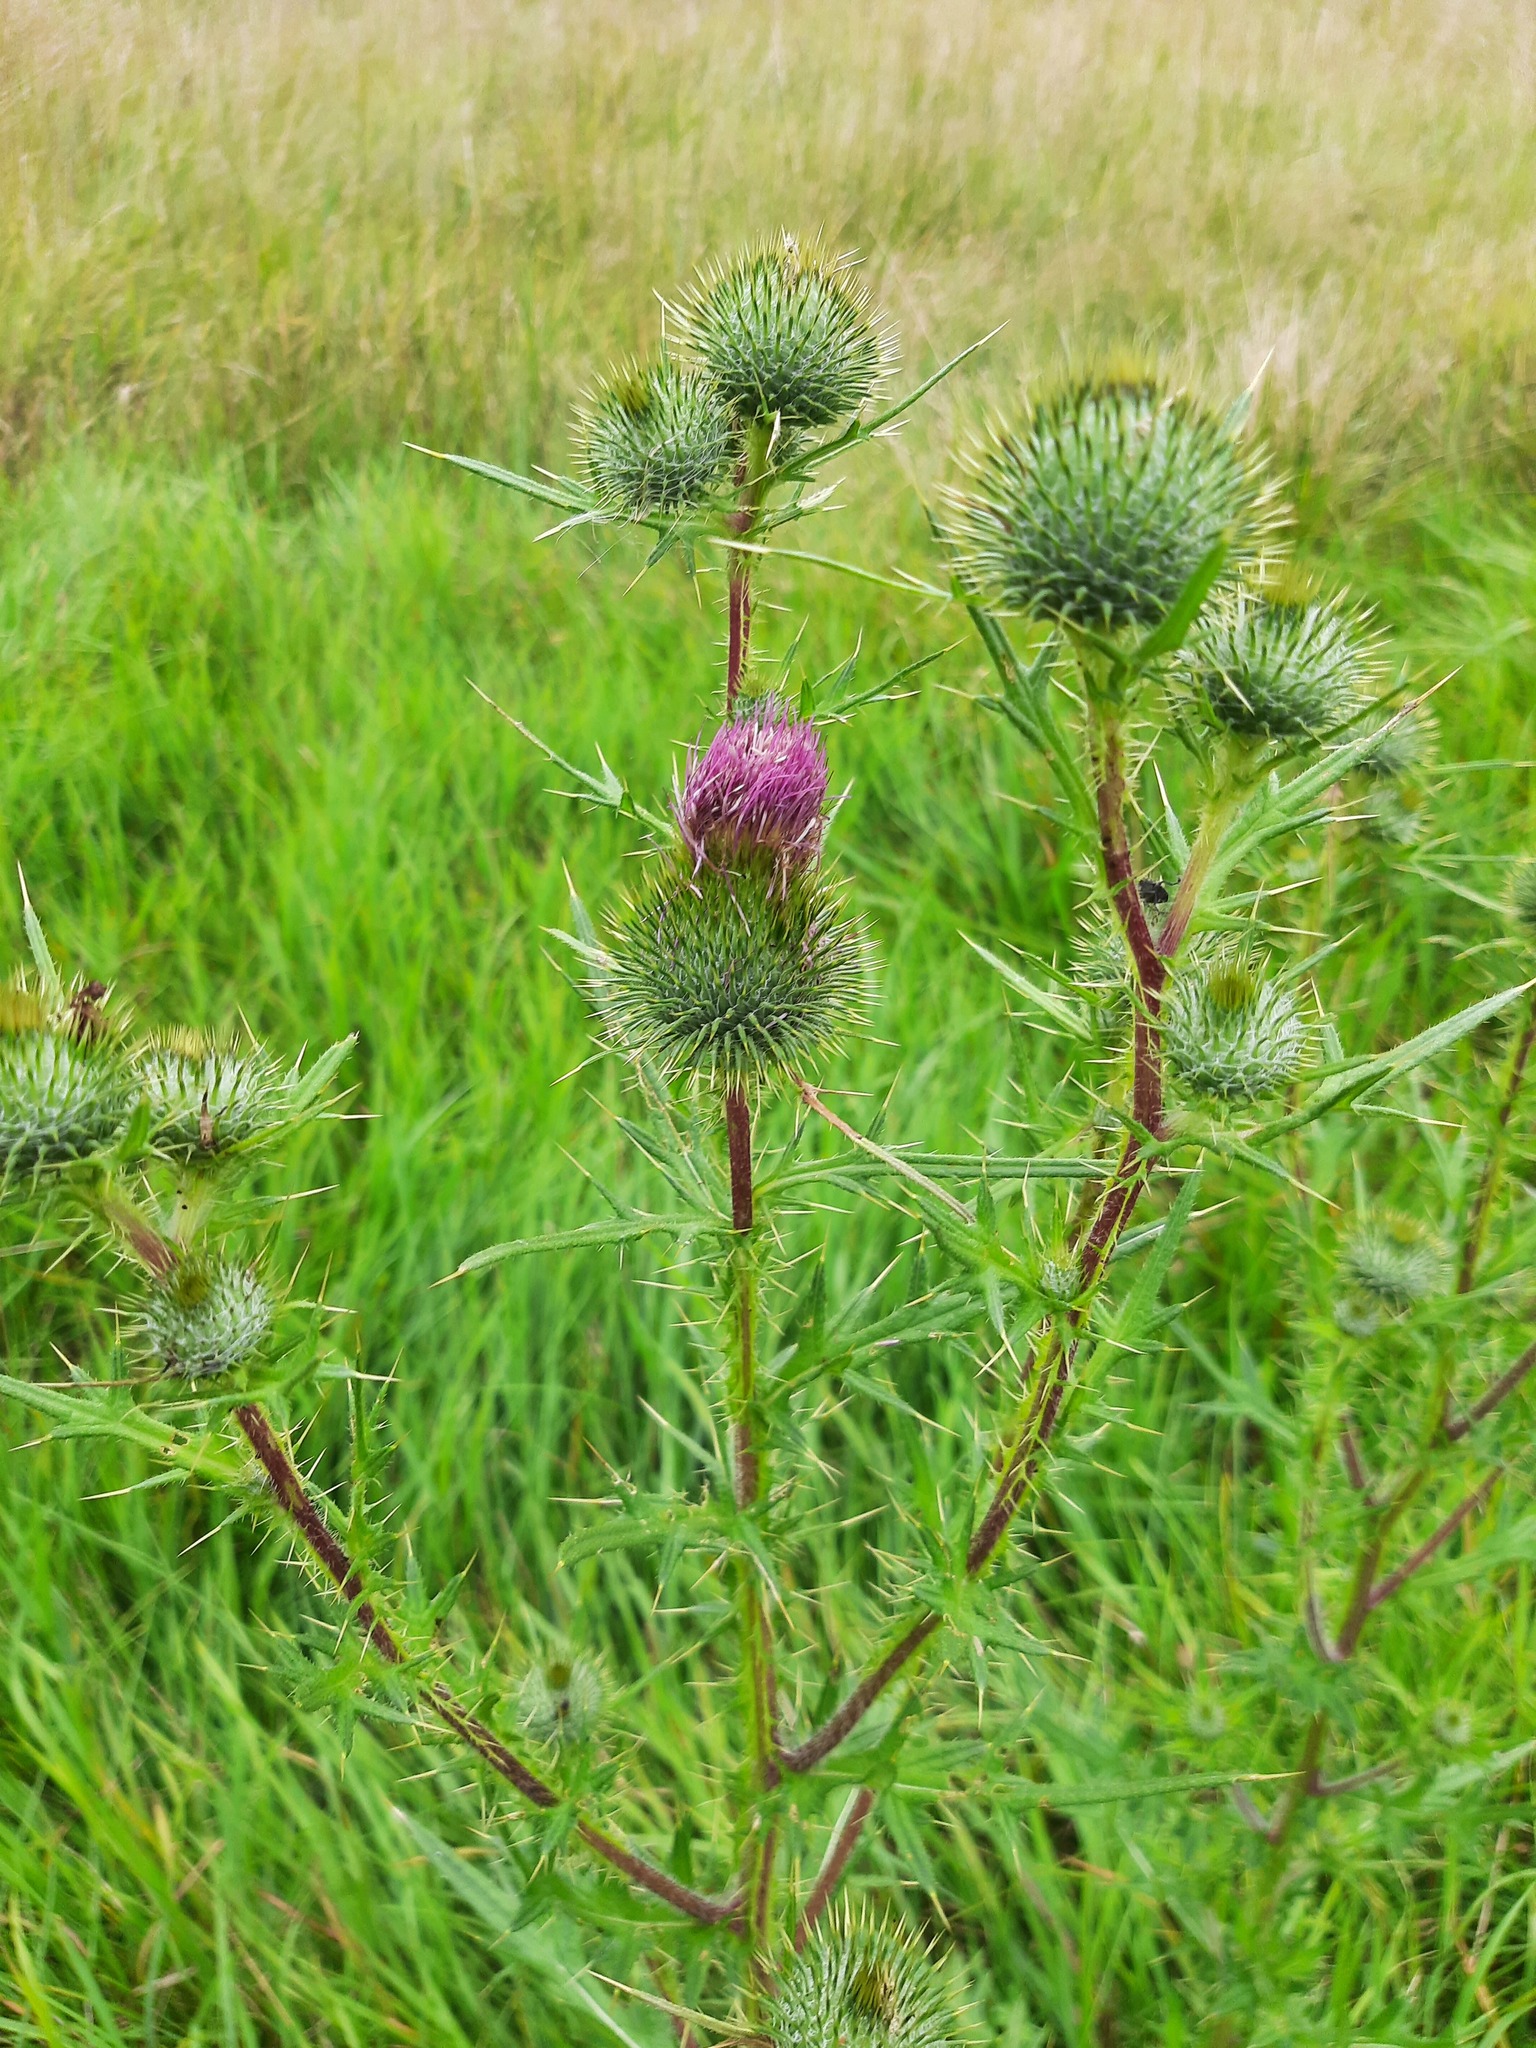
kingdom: Plantae
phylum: Tracheophyta
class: Magnoliopsida
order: Asterales
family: Asteraceae
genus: Cirsium
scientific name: Cirsium vulgare
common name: Bull thistle
